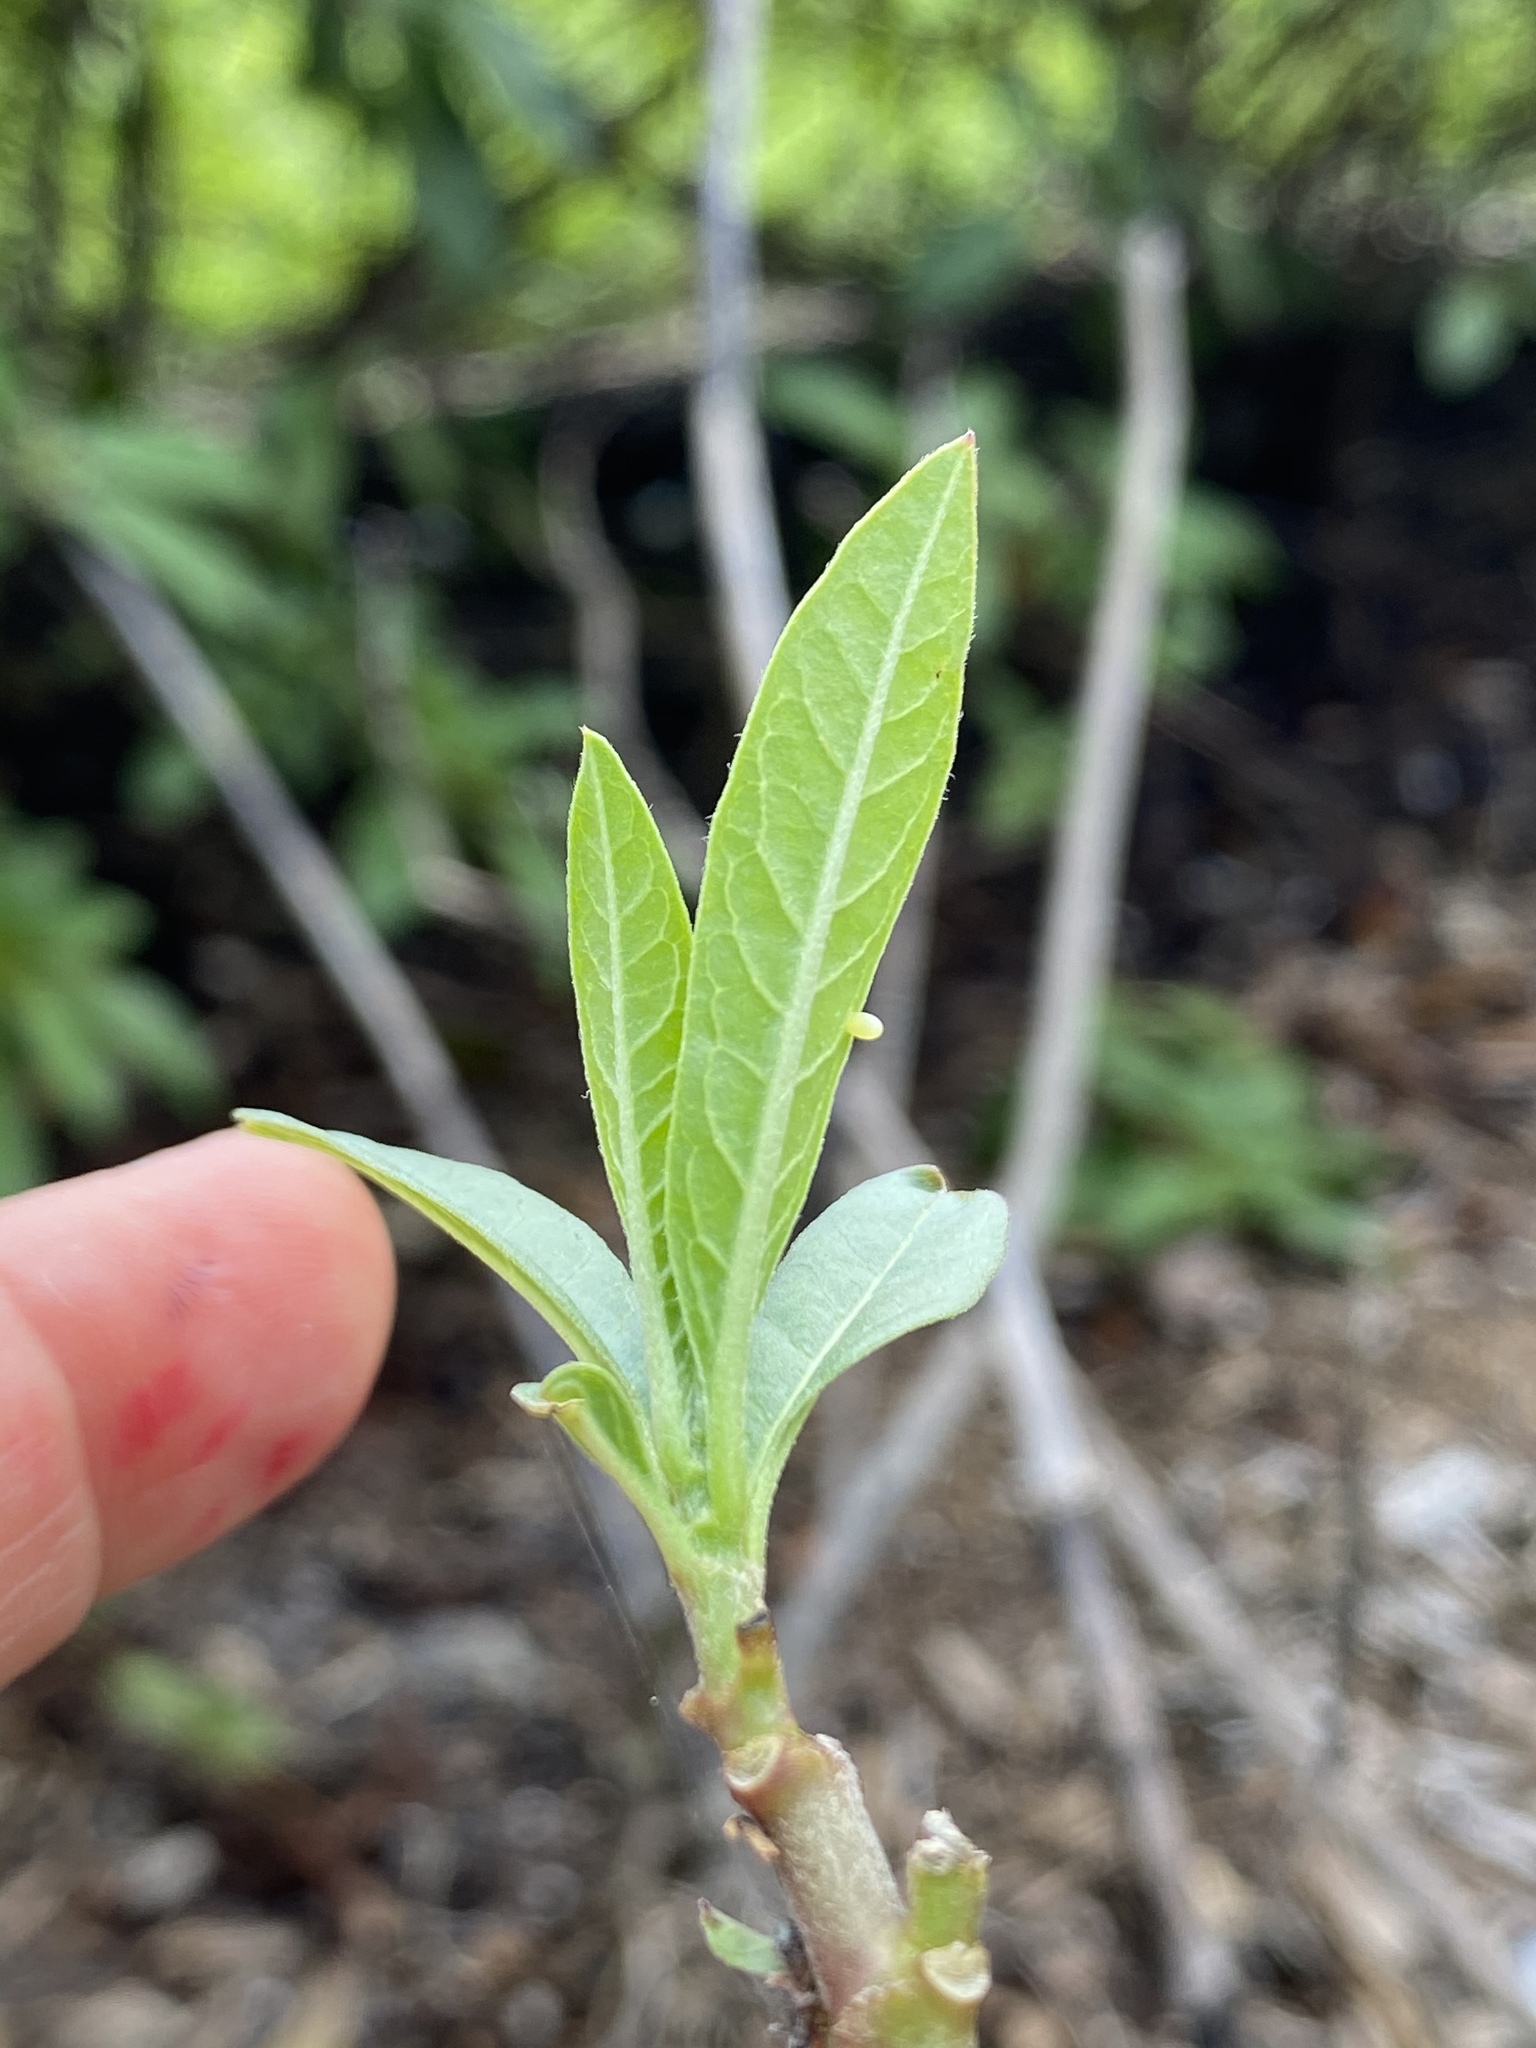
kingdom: Animalia
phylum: Arthropoda
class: Insecta
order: Lepidoptera
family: Nymphalidae
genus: Danaus
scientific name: Danaus plexippus
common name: Monarch
